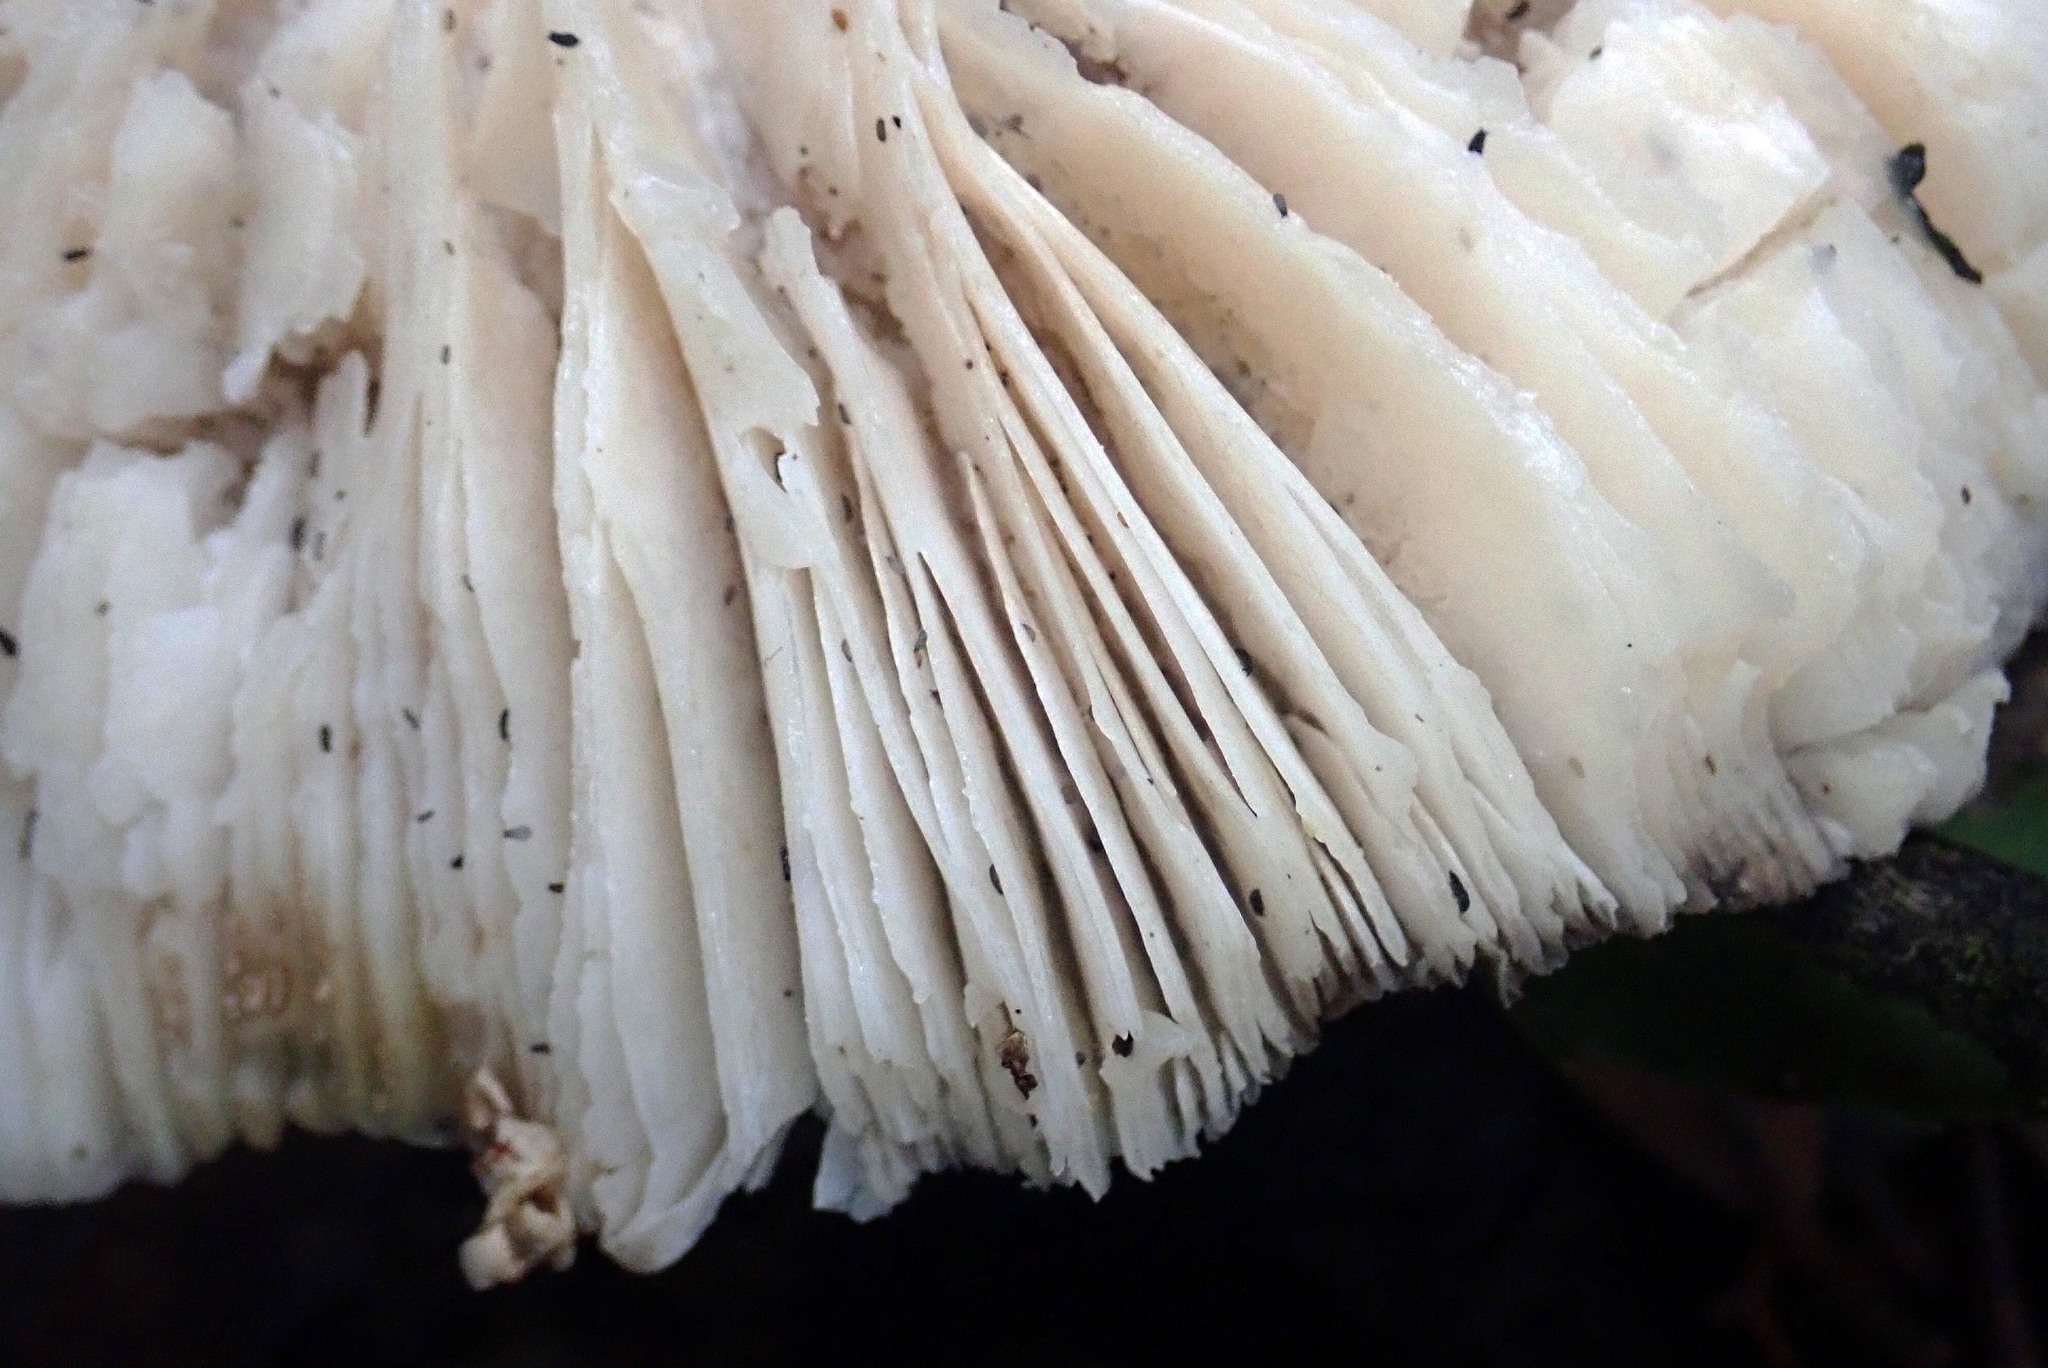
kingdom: Fungi
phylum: Basidiomycota
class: Agaricomycetes
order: Agaricales
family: Amanitaceae
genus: Amanita
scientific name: Amanita nothofagi
